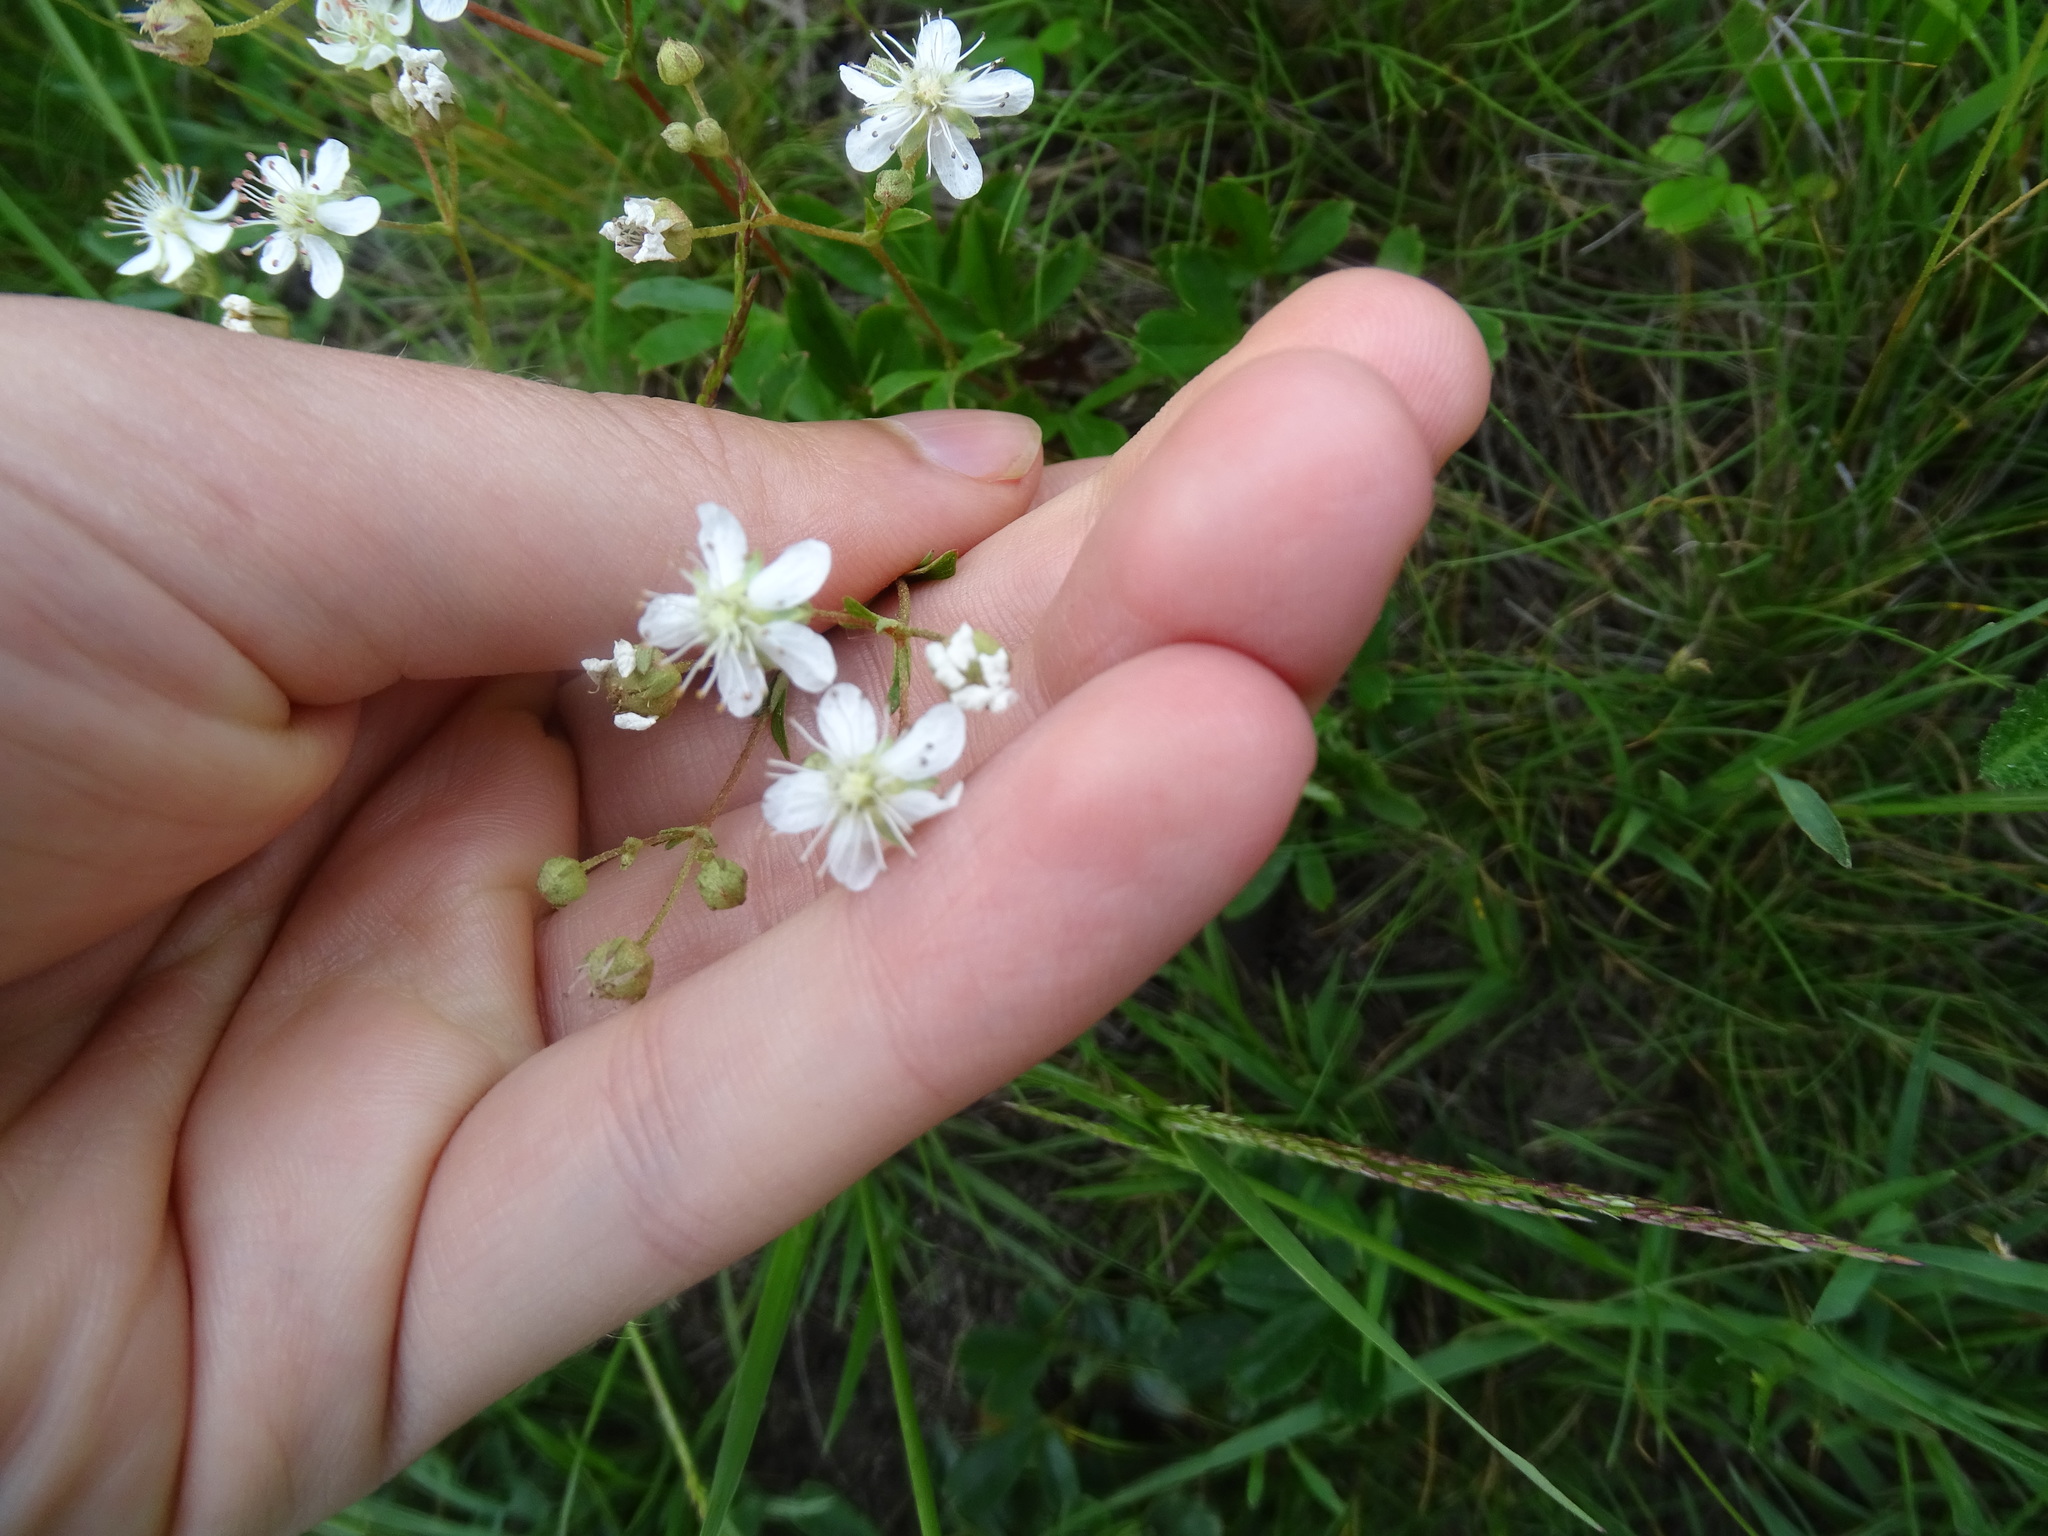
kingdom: Plantae
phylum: Tracheophyta
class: Magnoliopsida
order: Rosales
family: Rosaceae
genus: Sibbaldia
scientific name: Sibbaldia tridentata
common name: Three-toothed cinquefoil
